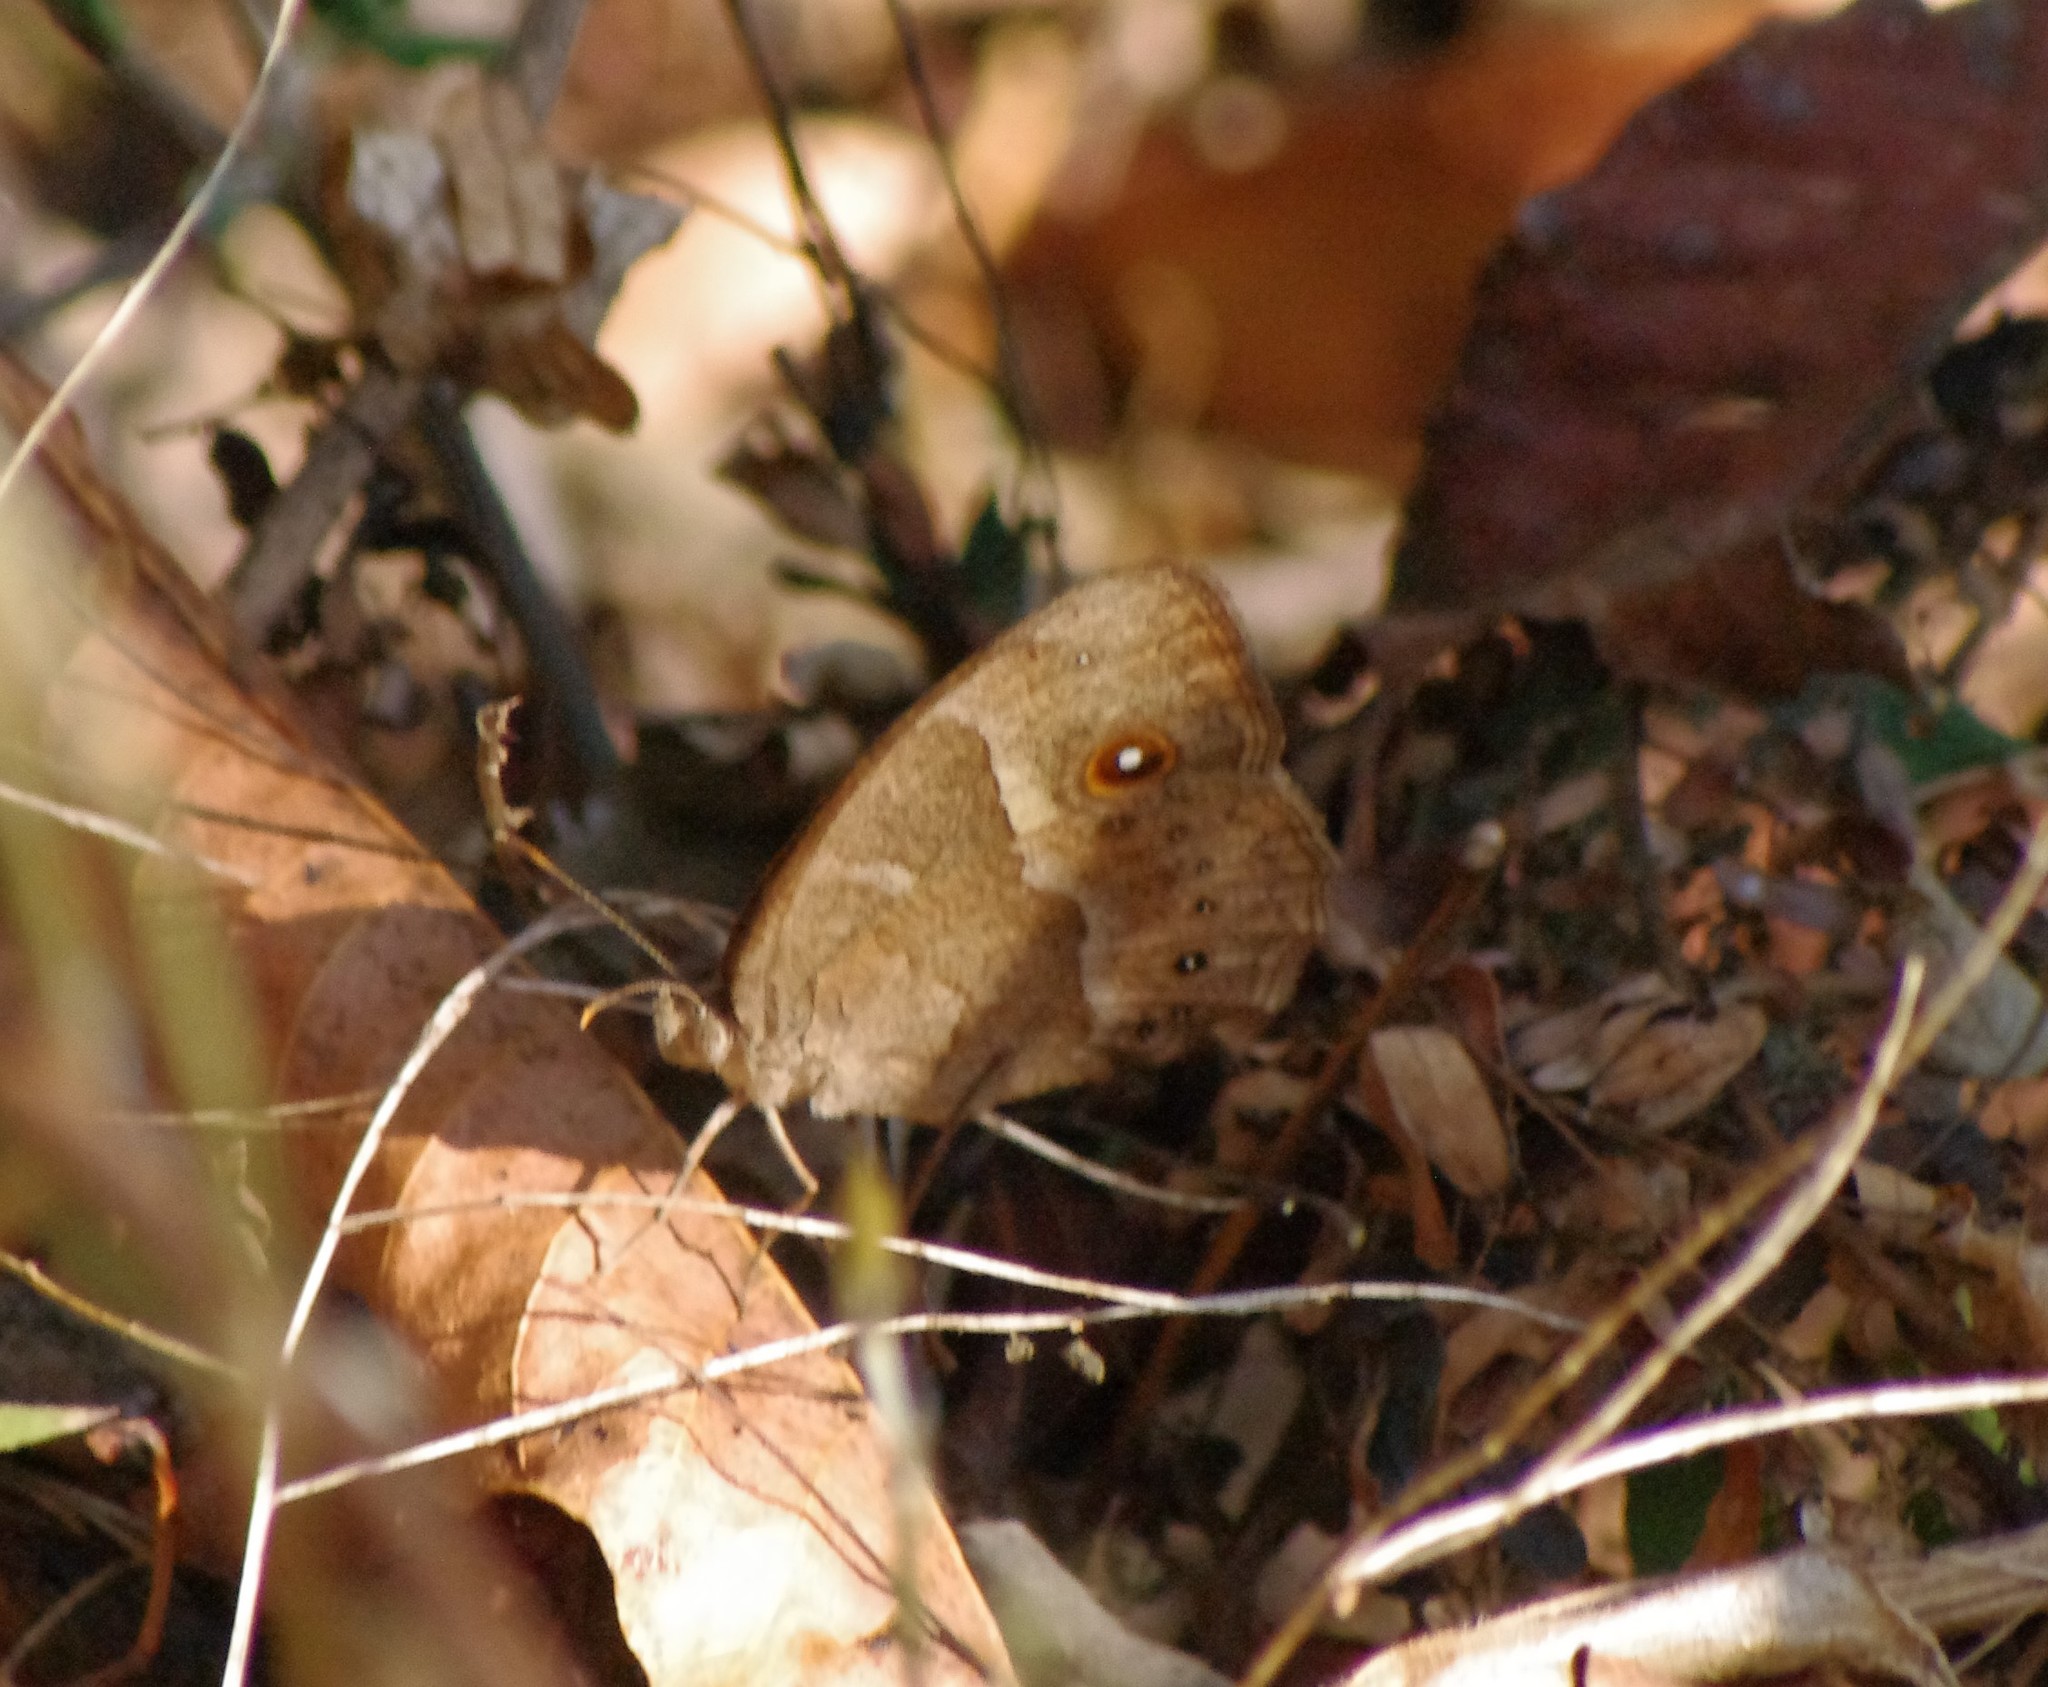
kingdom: Animalia
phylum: Arthropoda
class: Insecta
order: Lepidoptera
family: Nymphalidae
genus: Mycalesis
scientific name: Mycalesis anynana
